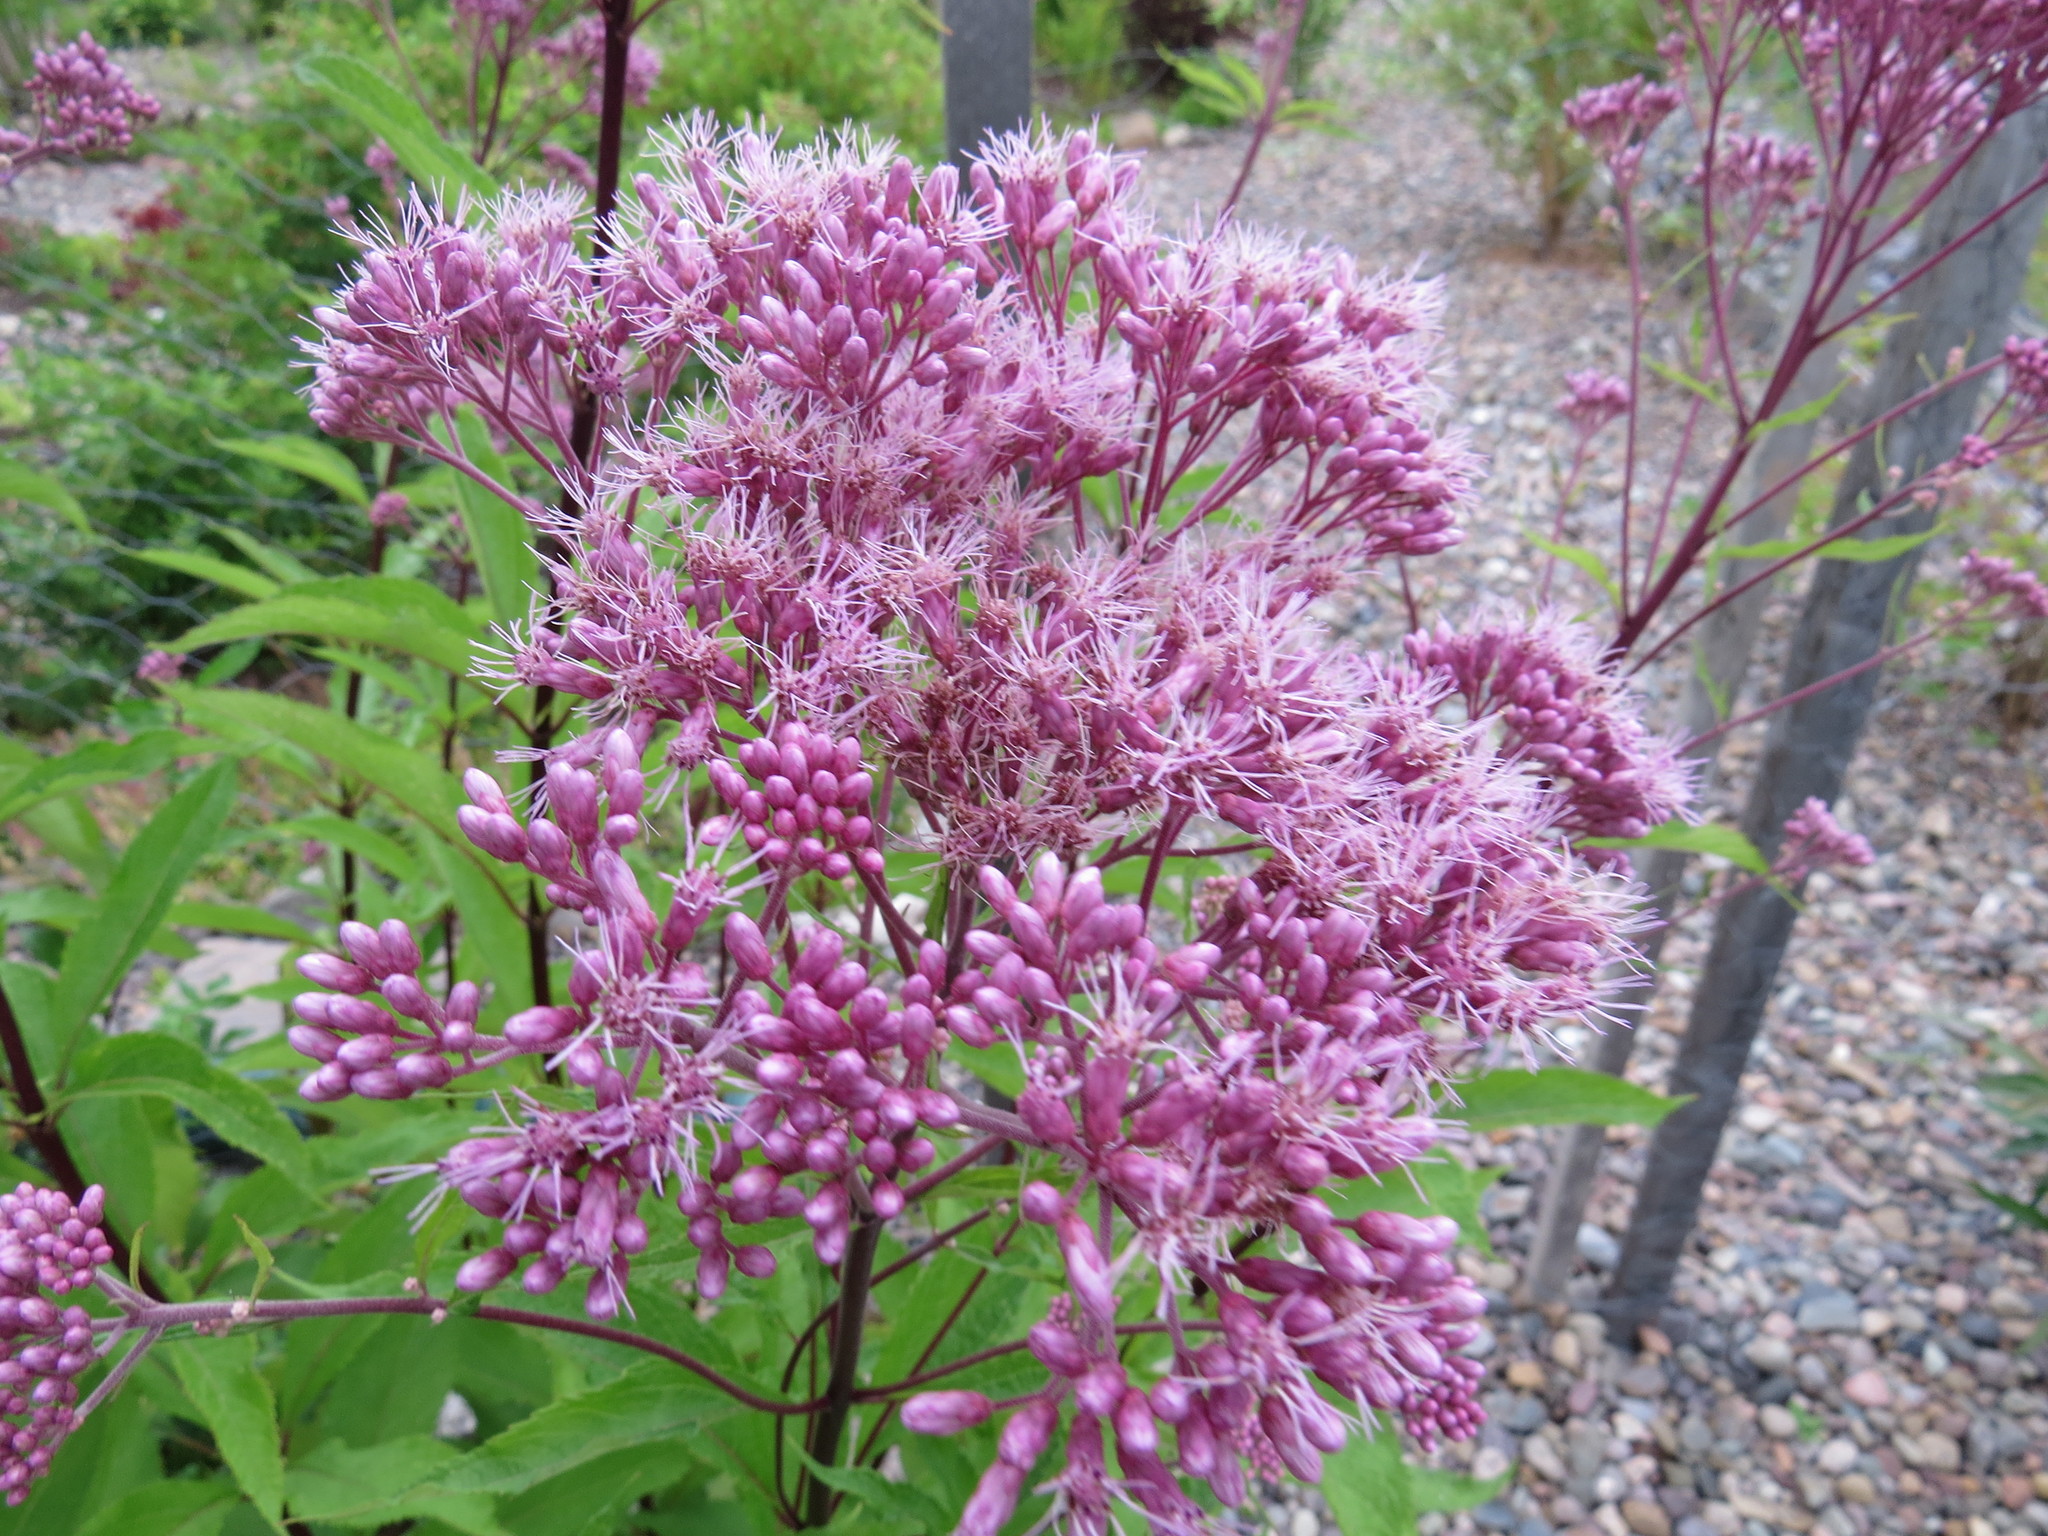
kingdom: Plantae
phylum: Tracheophyta
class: Magnoliopsida
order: Asterales
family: Asteraceae
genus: Eutrochium
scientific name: Eutrochium maculatum
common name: Spotted joe pye weed
